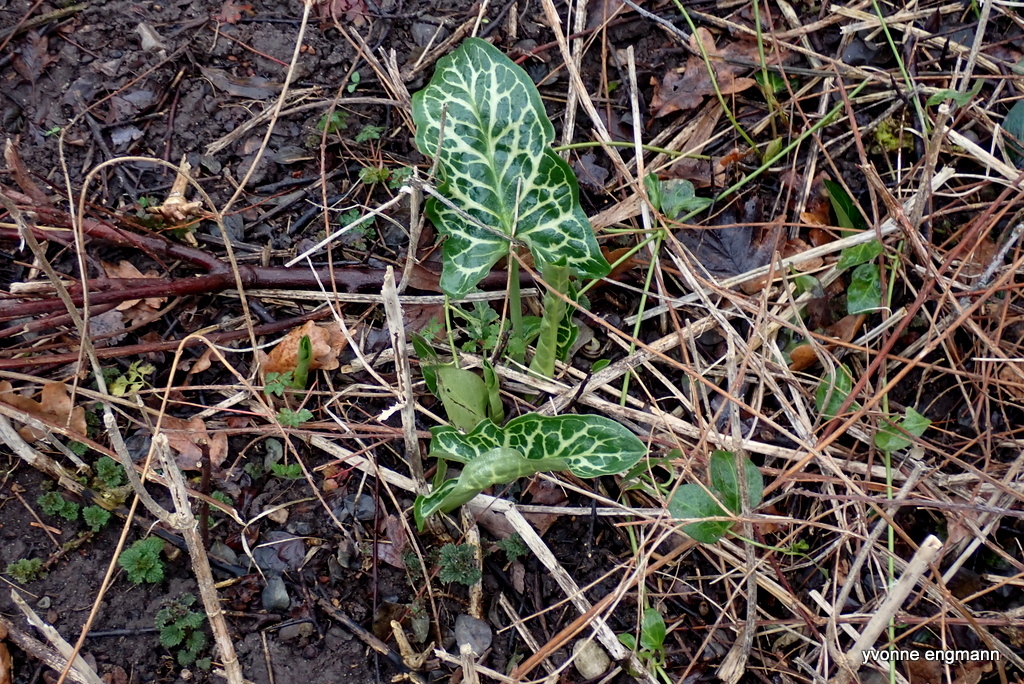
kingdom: Plantae
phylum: Tracheophyta
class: Liliopsida
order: Alismatales
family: Araceae
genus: Arum
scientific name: Arum italicum
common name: Italian lords-and-ladies
